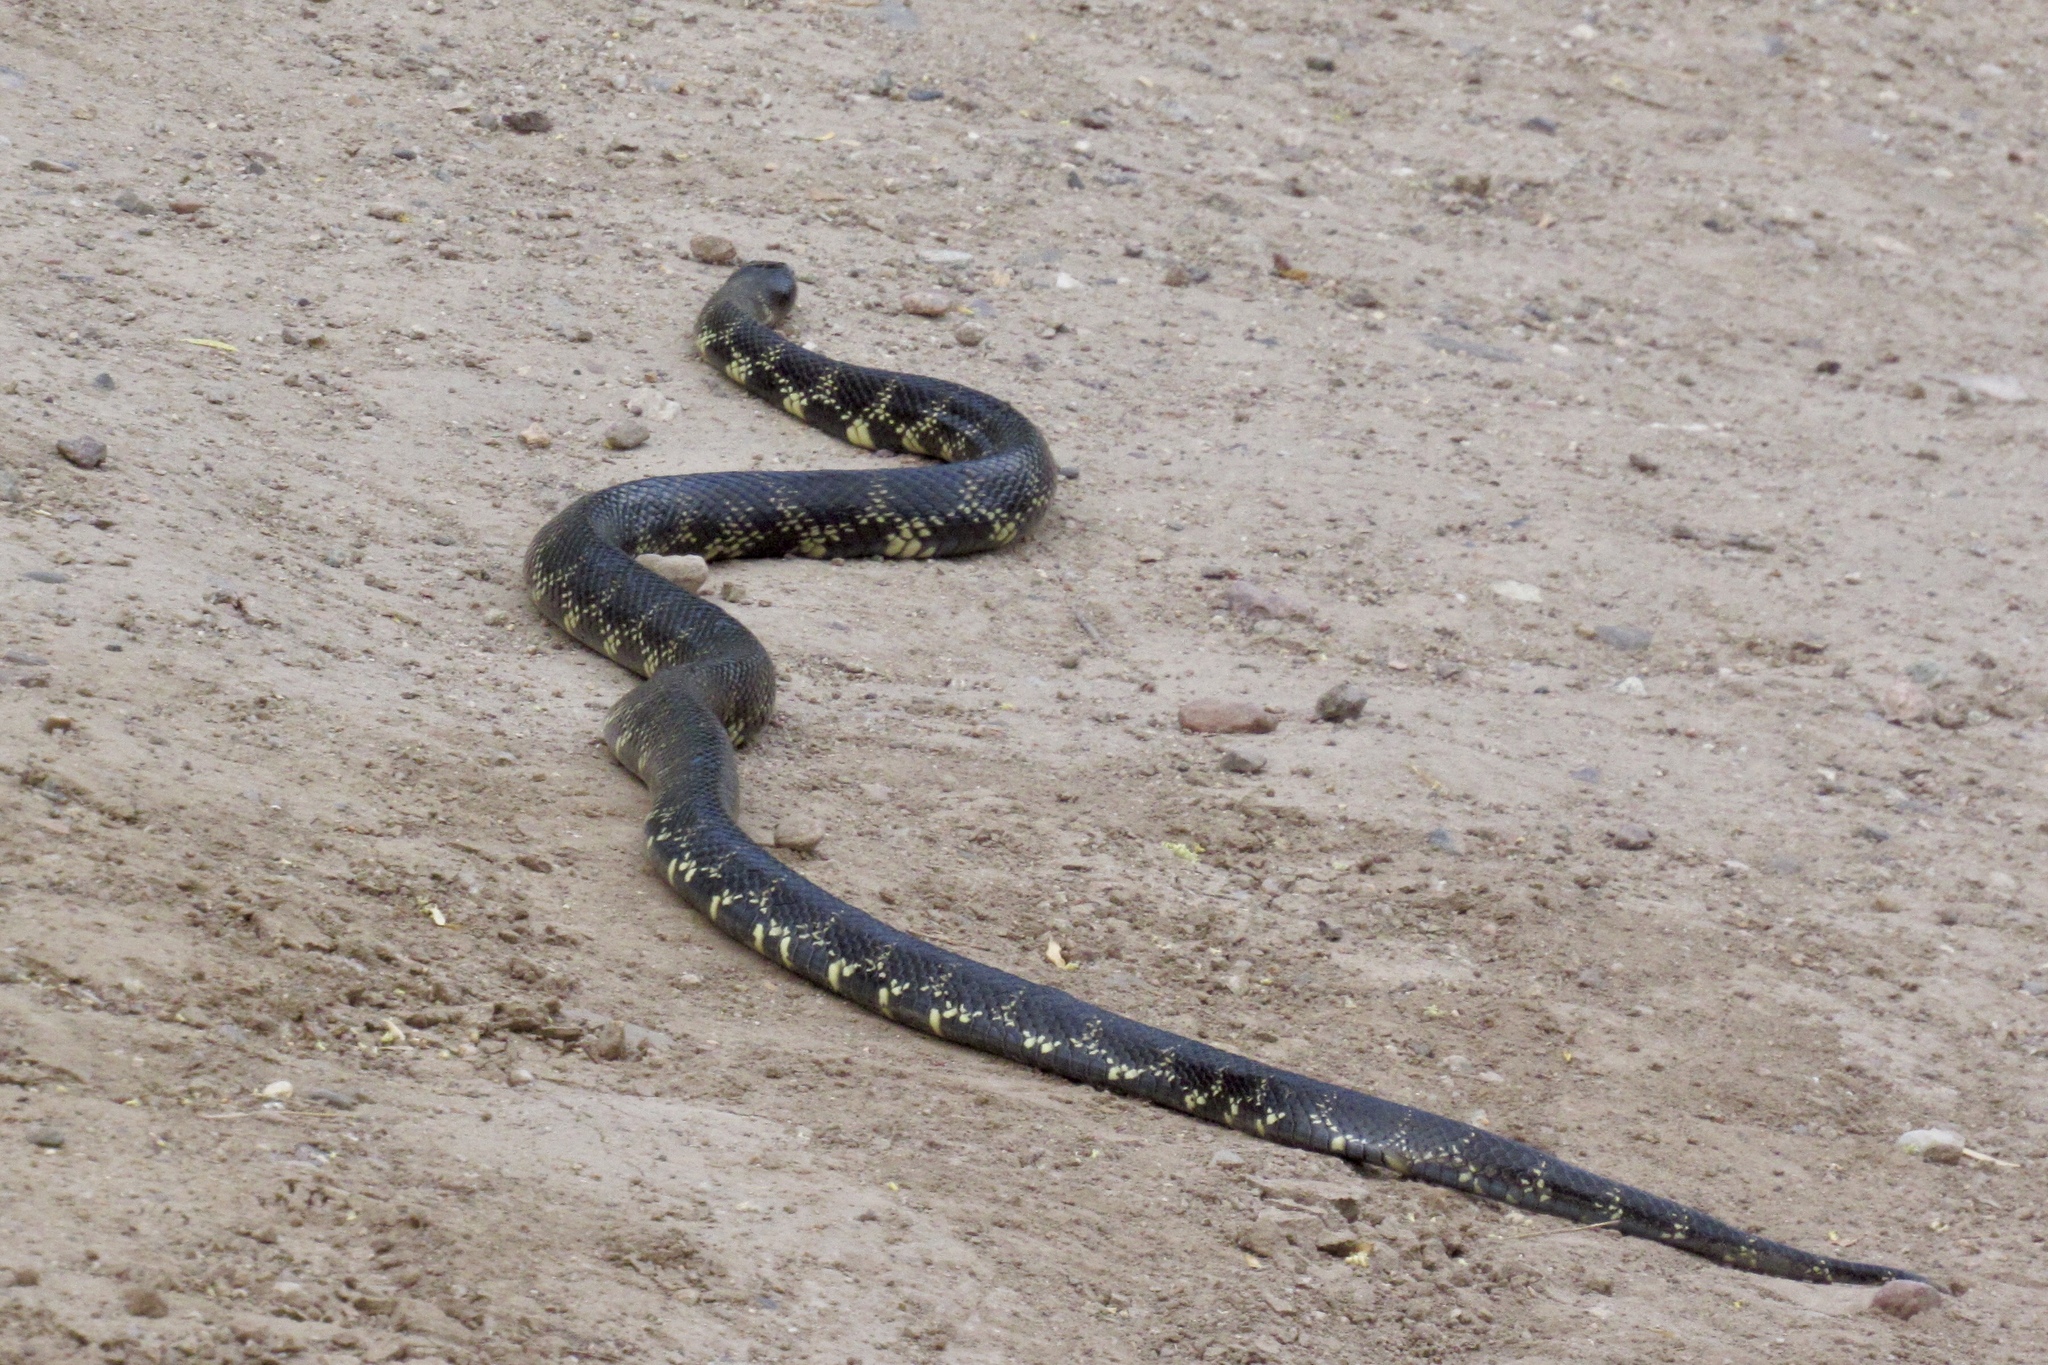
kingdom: Animalia
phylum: Chordata
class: Squamata
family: Colubridae
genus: Lampropeltis
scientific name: Lampropeltis
